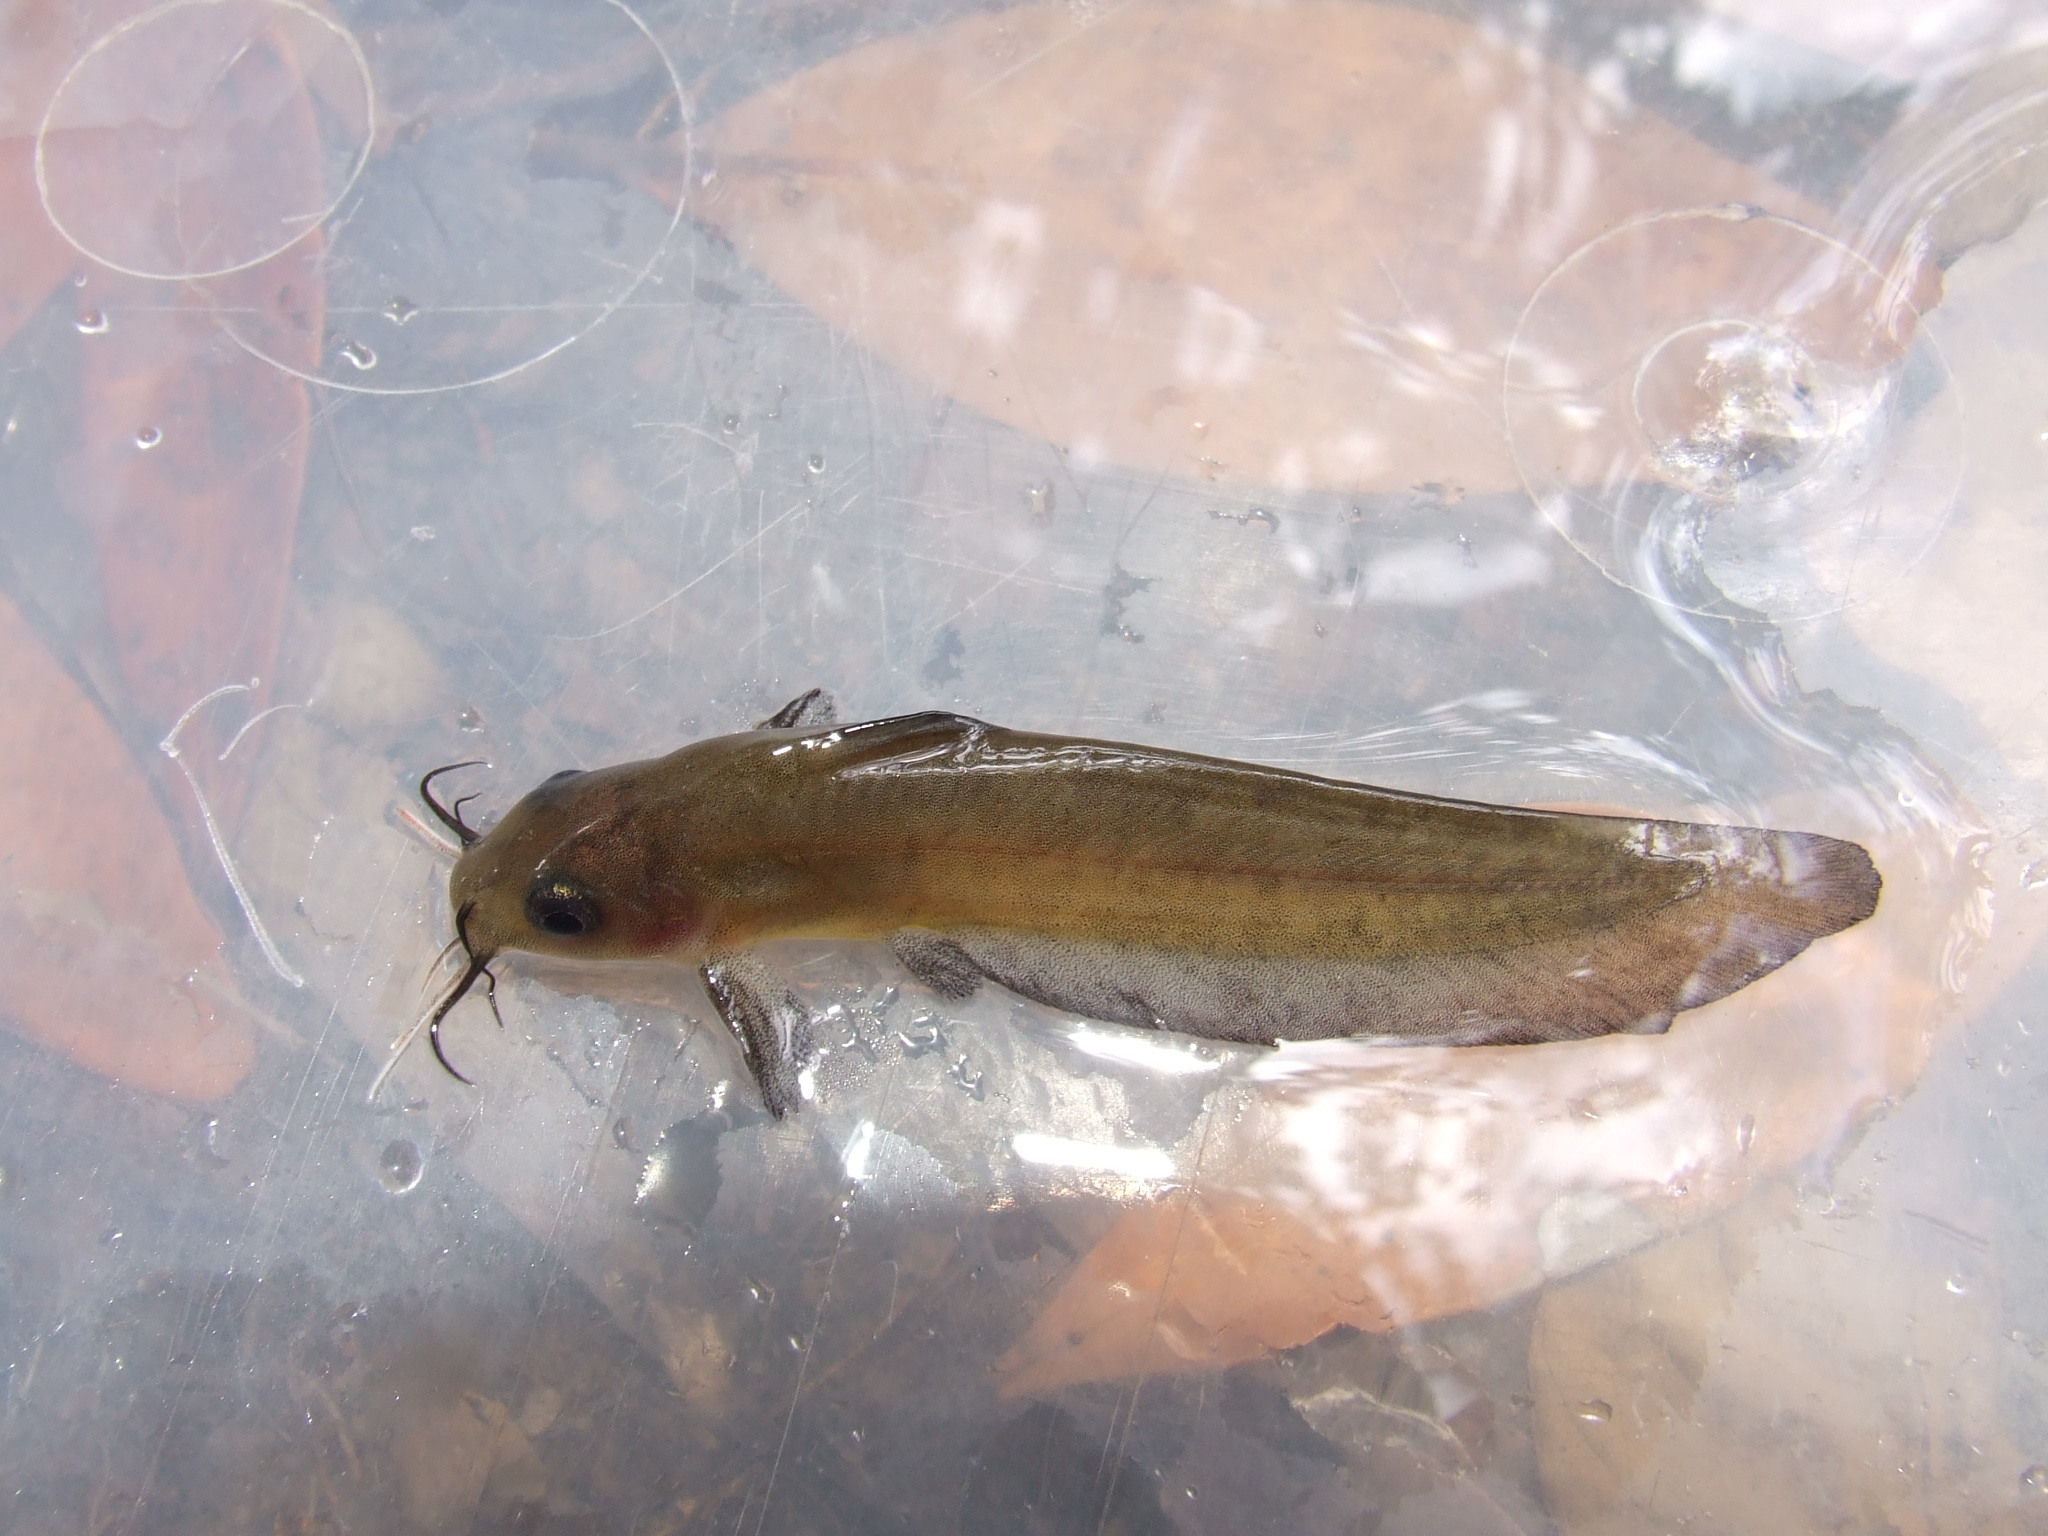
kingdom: Animalia
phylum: Chordata
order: Siluriformes
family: Plotosidae
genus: Neosilurus
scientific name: Neosilurus ater
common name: Black catfish
